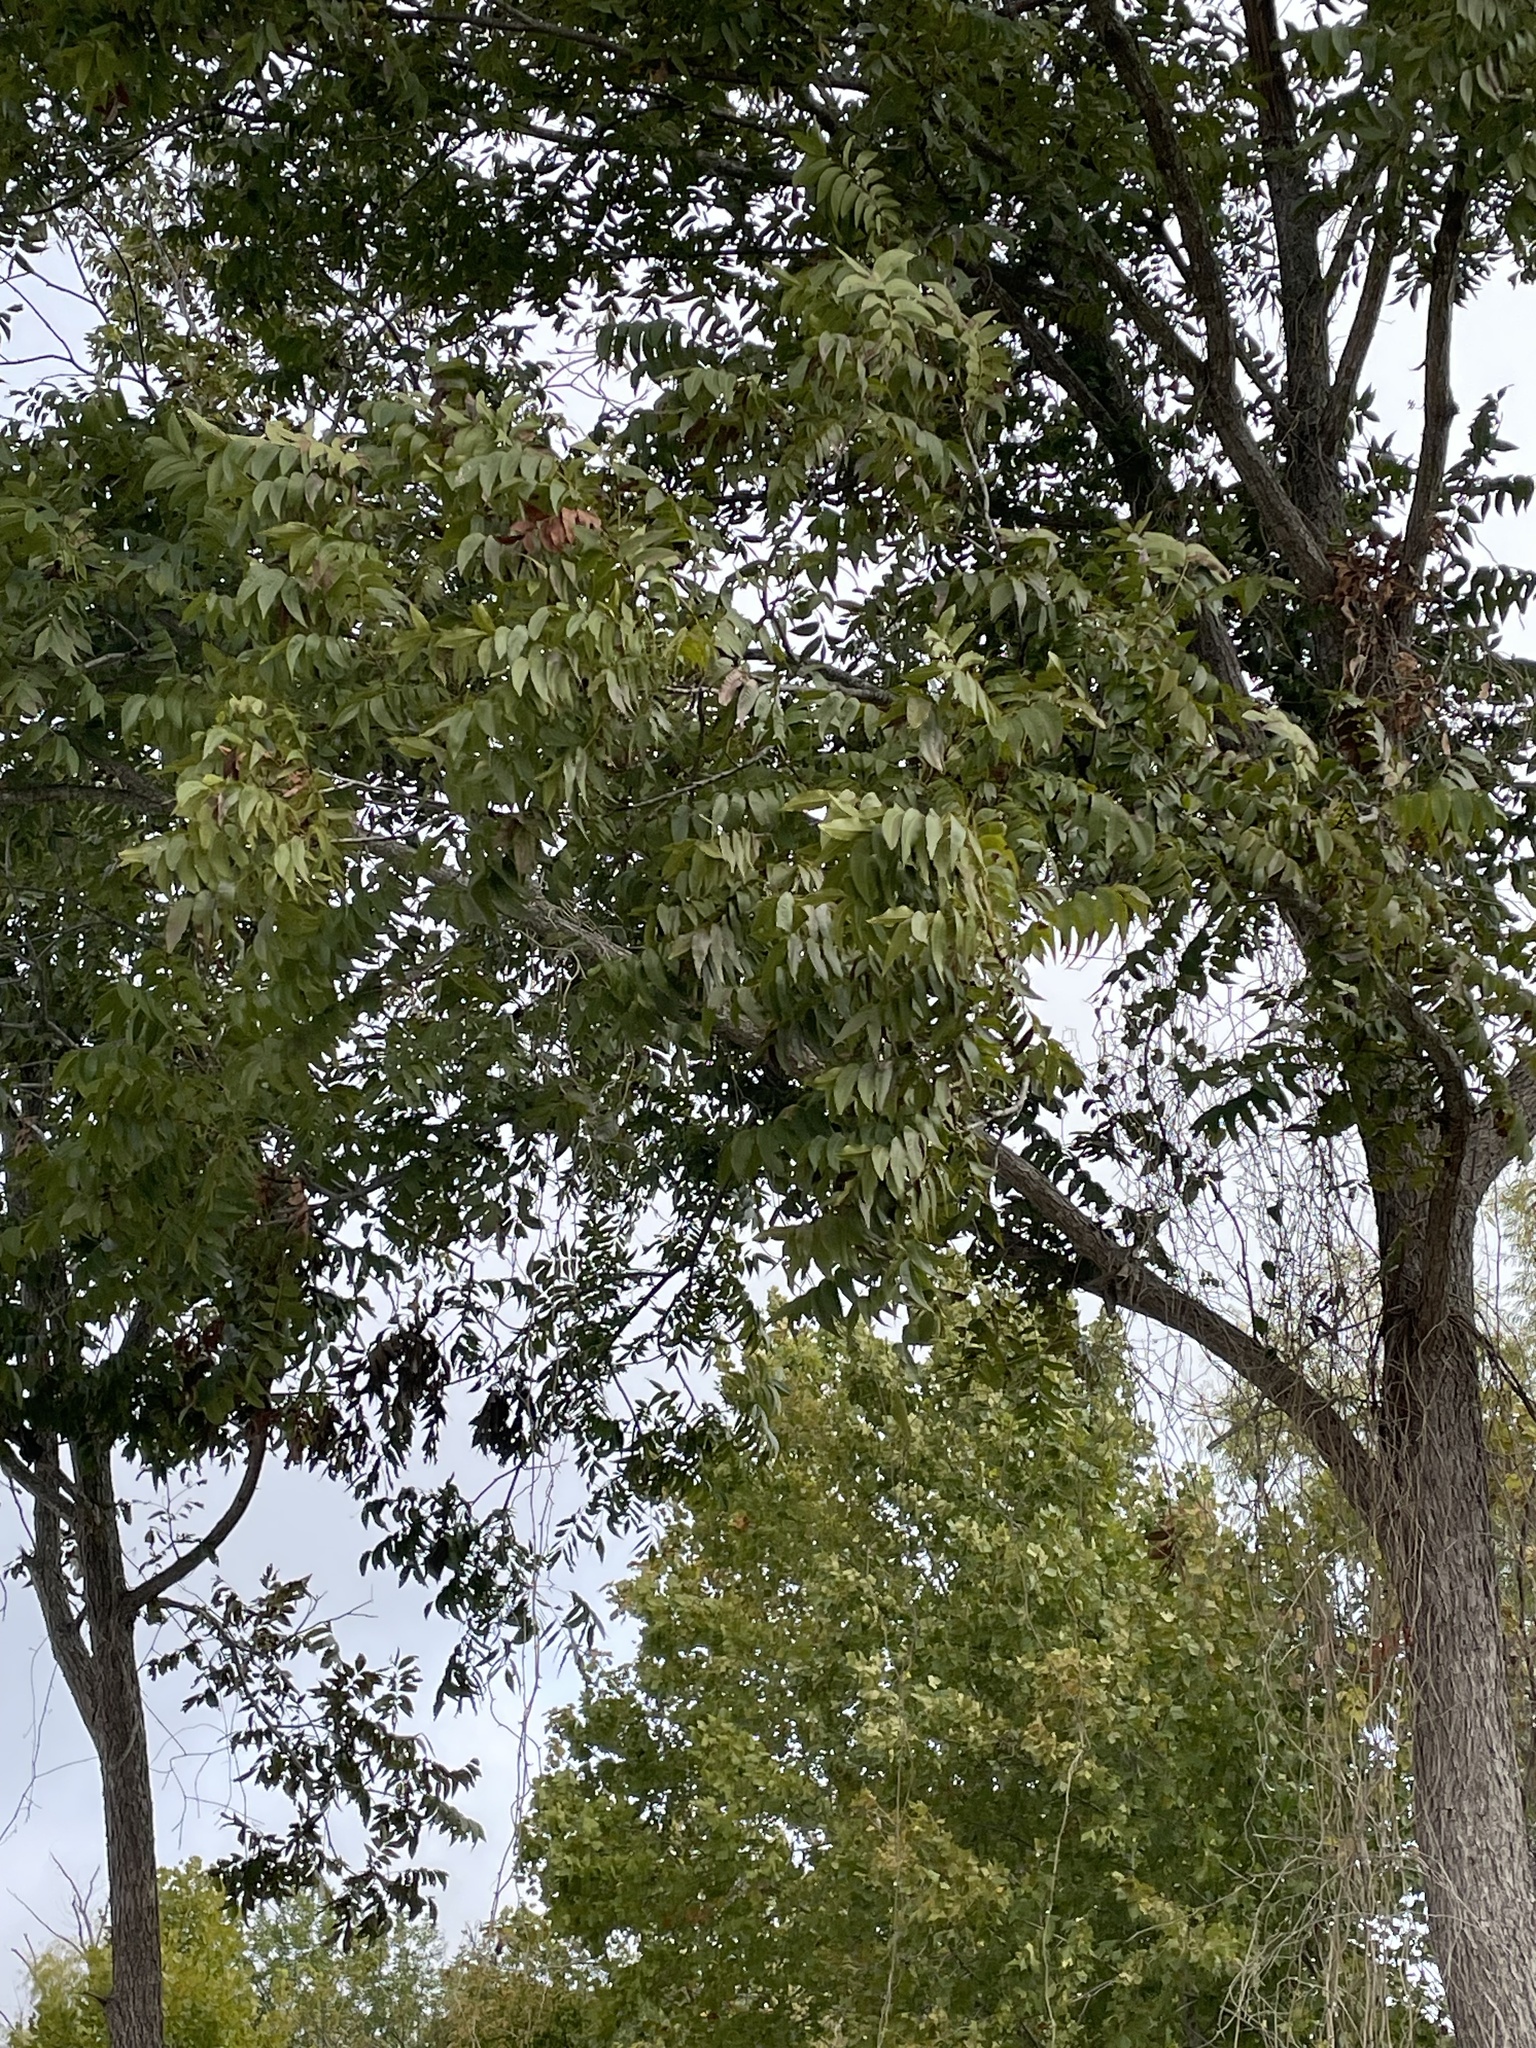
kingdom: Plantae
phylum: Tracheophyta
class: Magnoliopsida
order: Fagales
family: Juglandaceae
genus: Carya
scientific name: Carya illinoinensis
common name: Pecan
